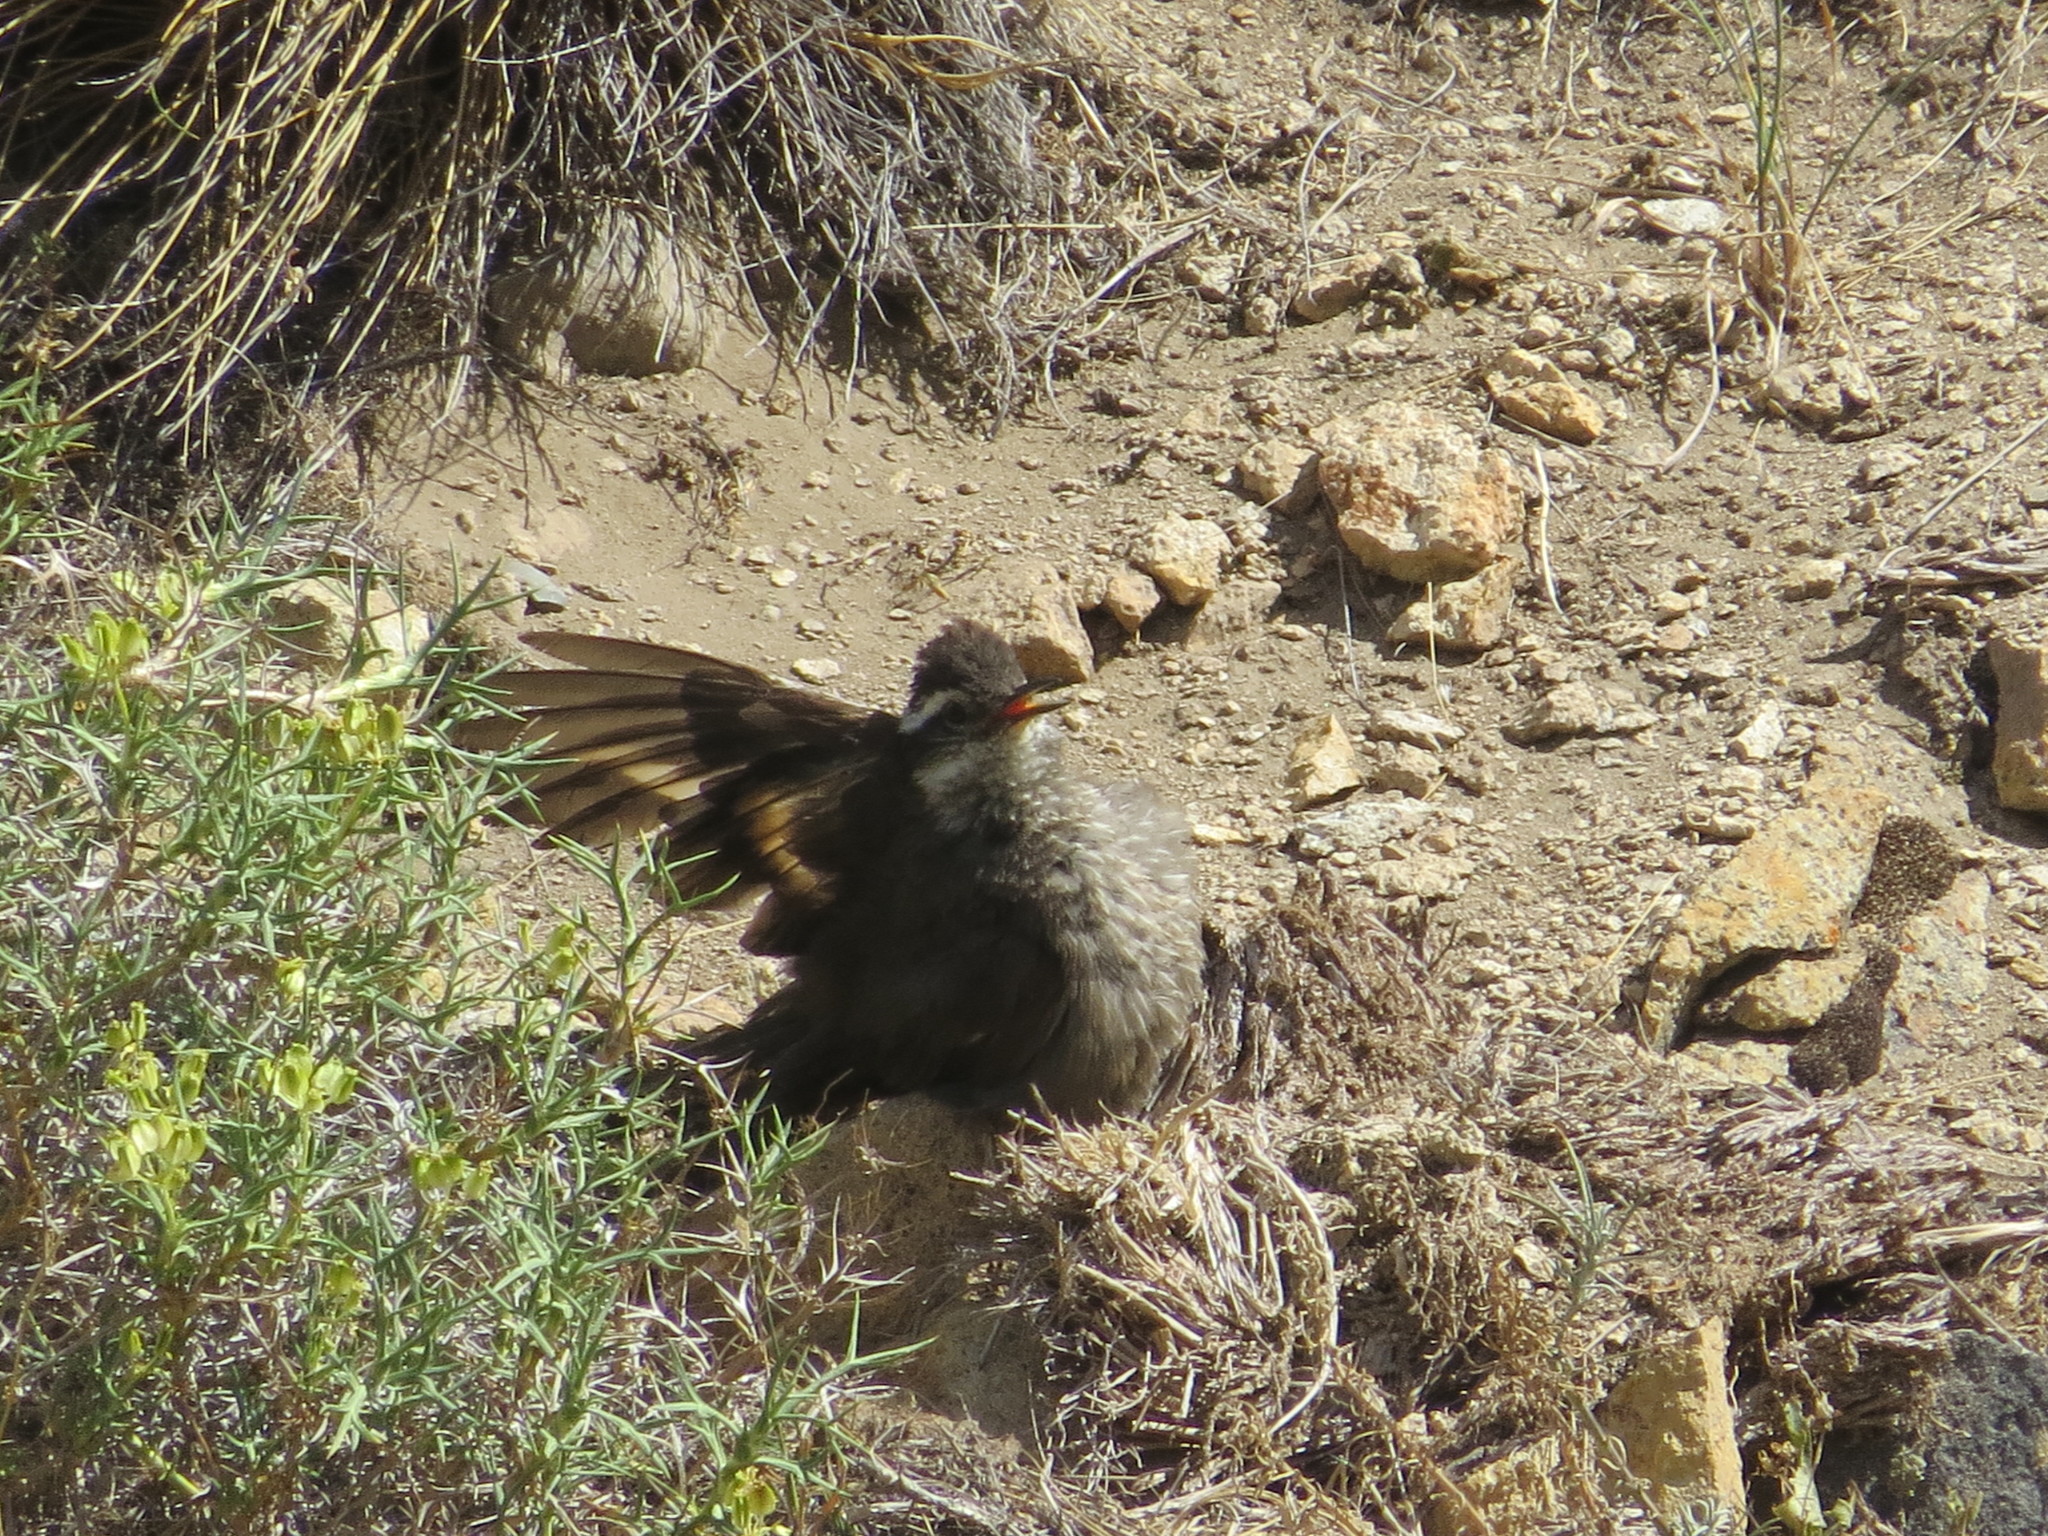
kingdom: Animalia
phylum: Chordata
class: Aves
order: Passeriformes
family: Furnariidae
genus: Cinclodes
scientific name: Cinclodes patagonicus
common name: Dark-bellied cinclodes
